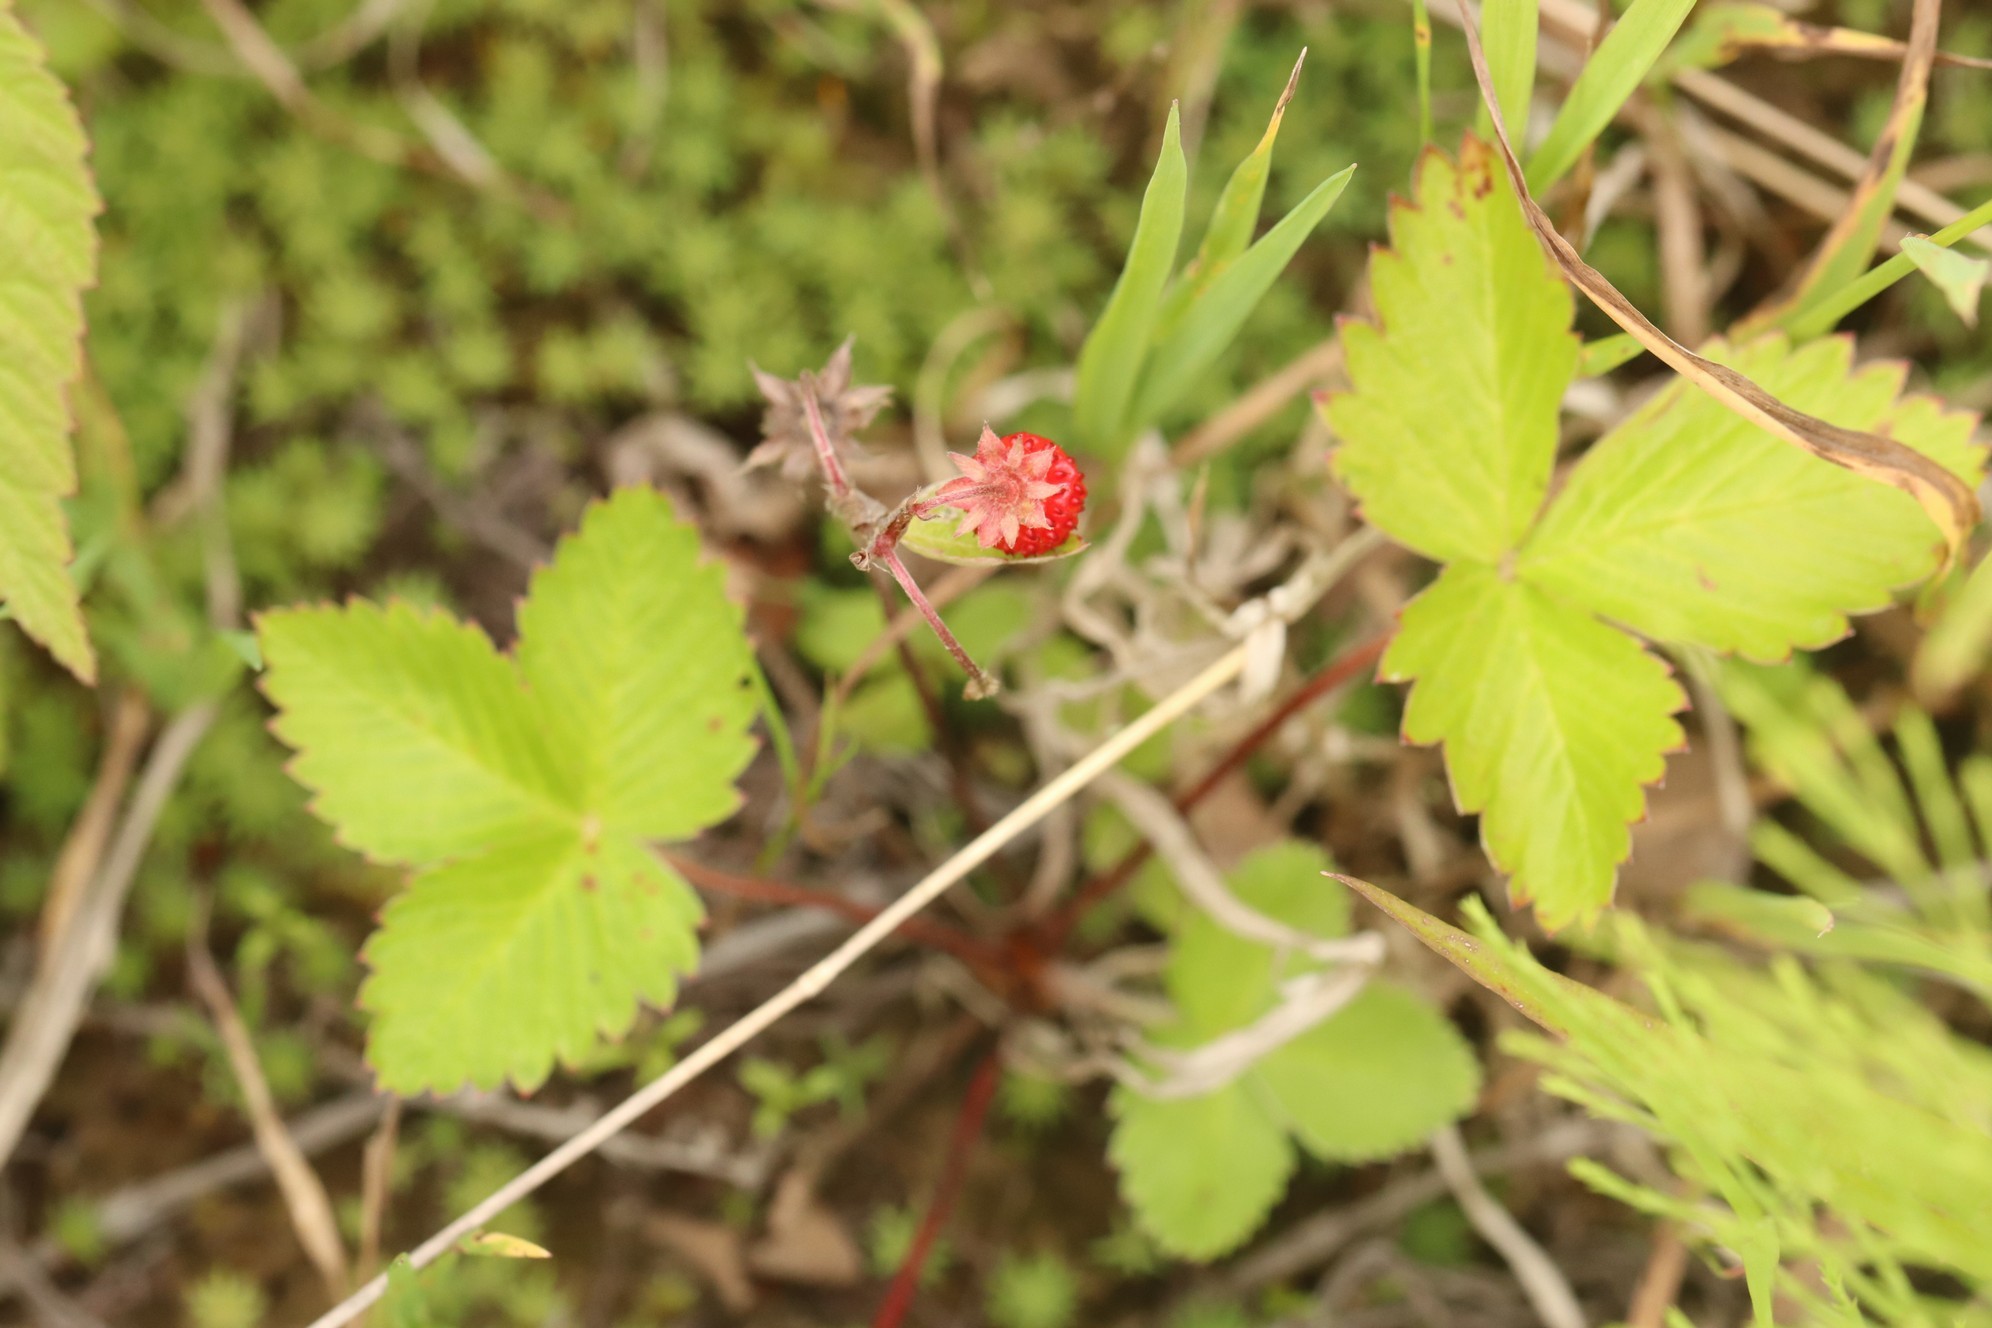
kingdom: Plantae
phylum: Tracheophyta
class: Magnoliopsida
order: Rosales
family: Rosaceae
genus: Fragaria
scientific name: Fragaria vesca
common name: Wild strawberry
